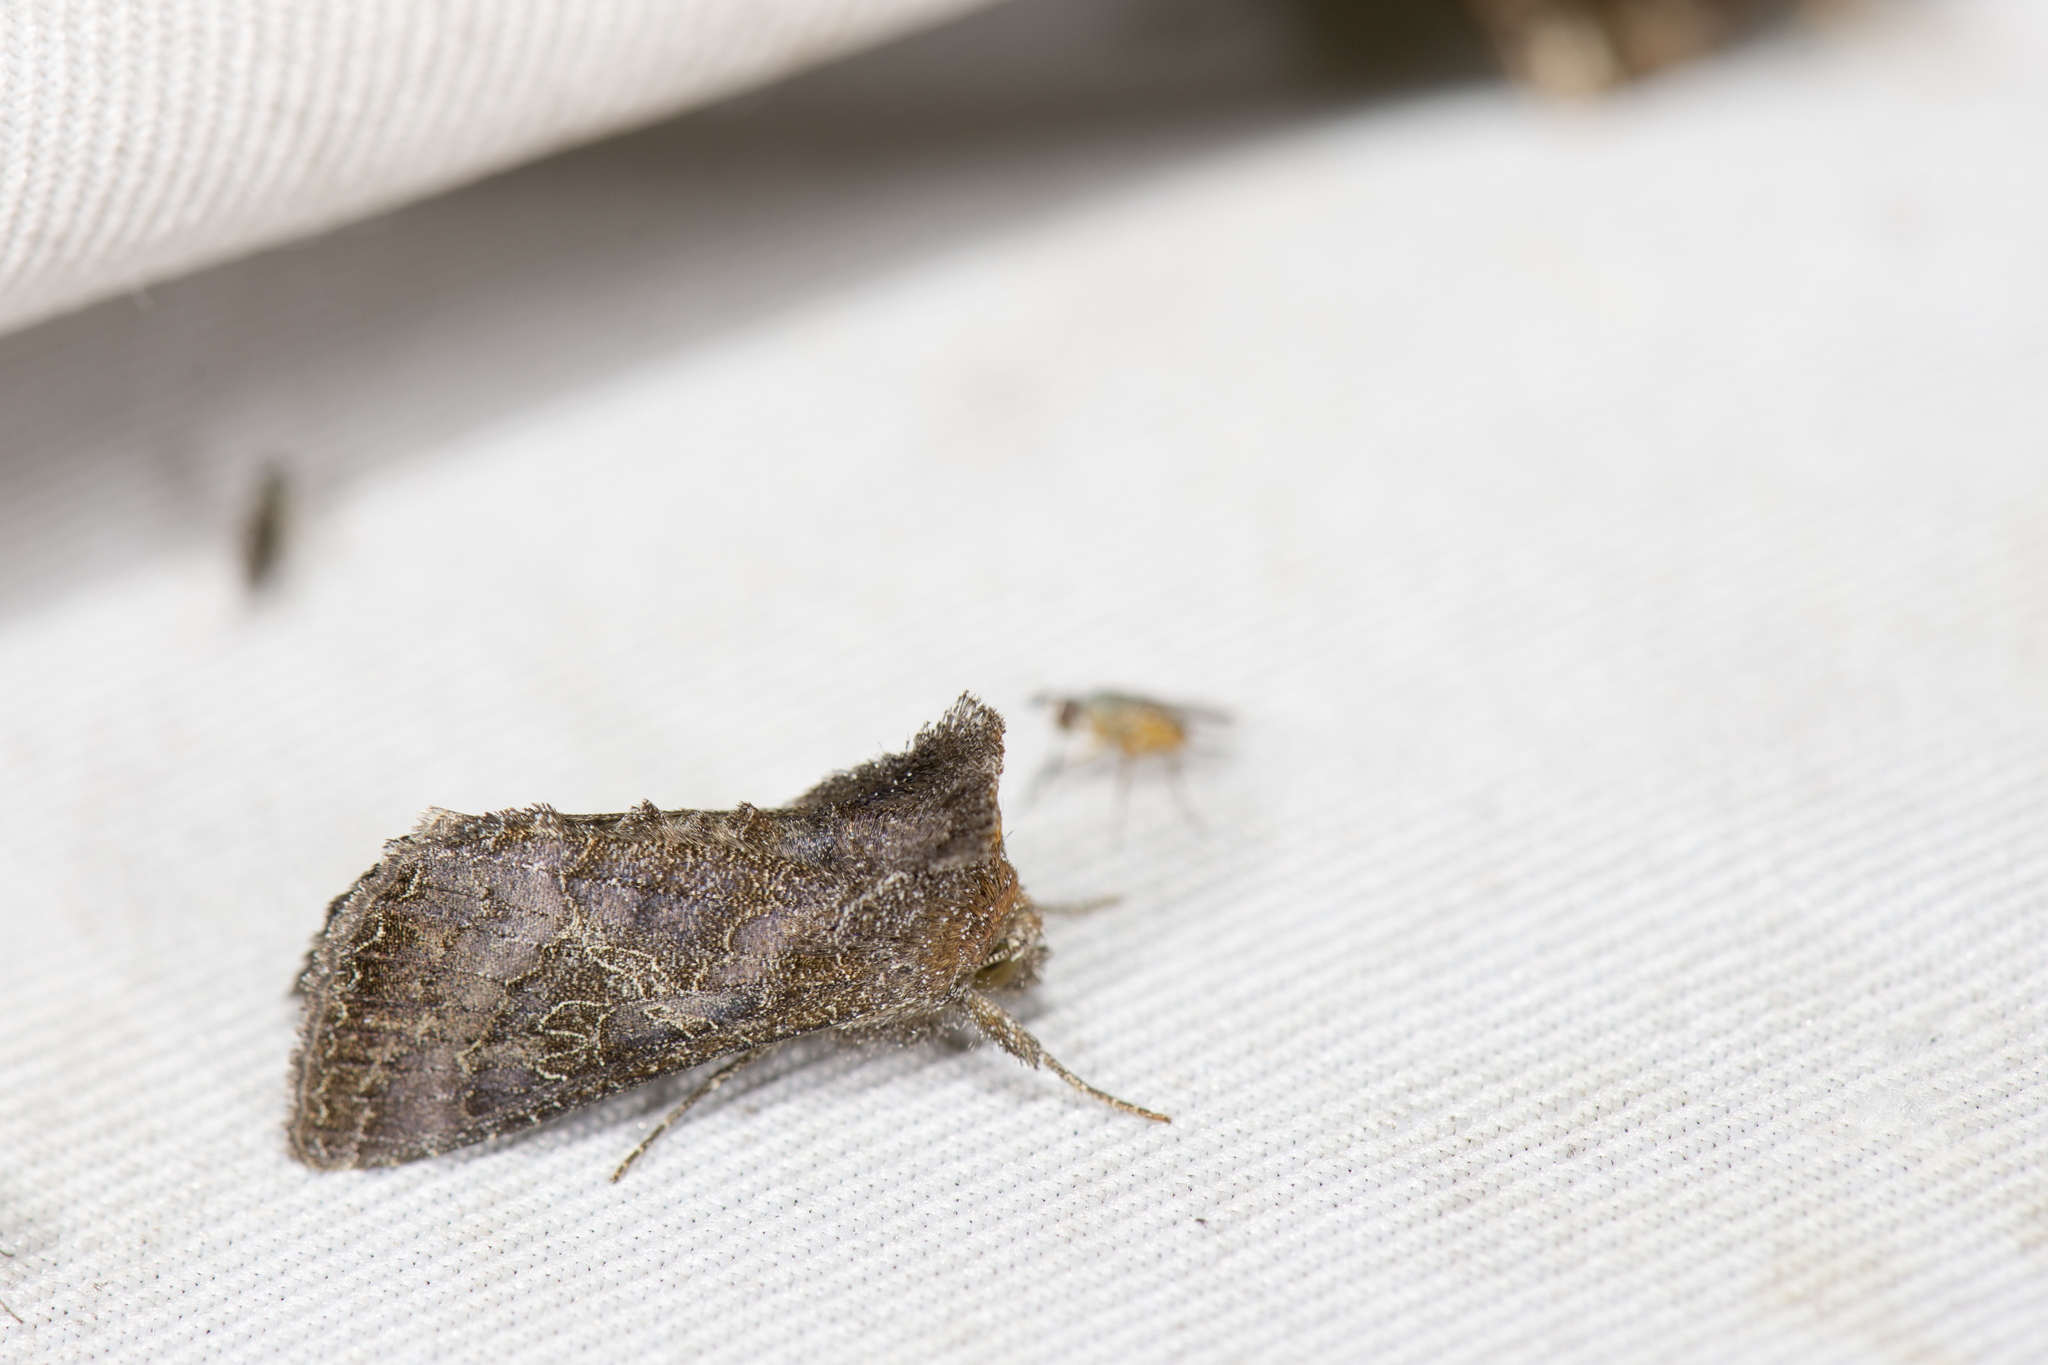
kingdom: Animalia
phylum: Arthropoda
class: Insecta
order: Lepidoptera
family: Noctuidae
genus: Thysanoplusia
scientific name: Thysanoplusia reticulata
